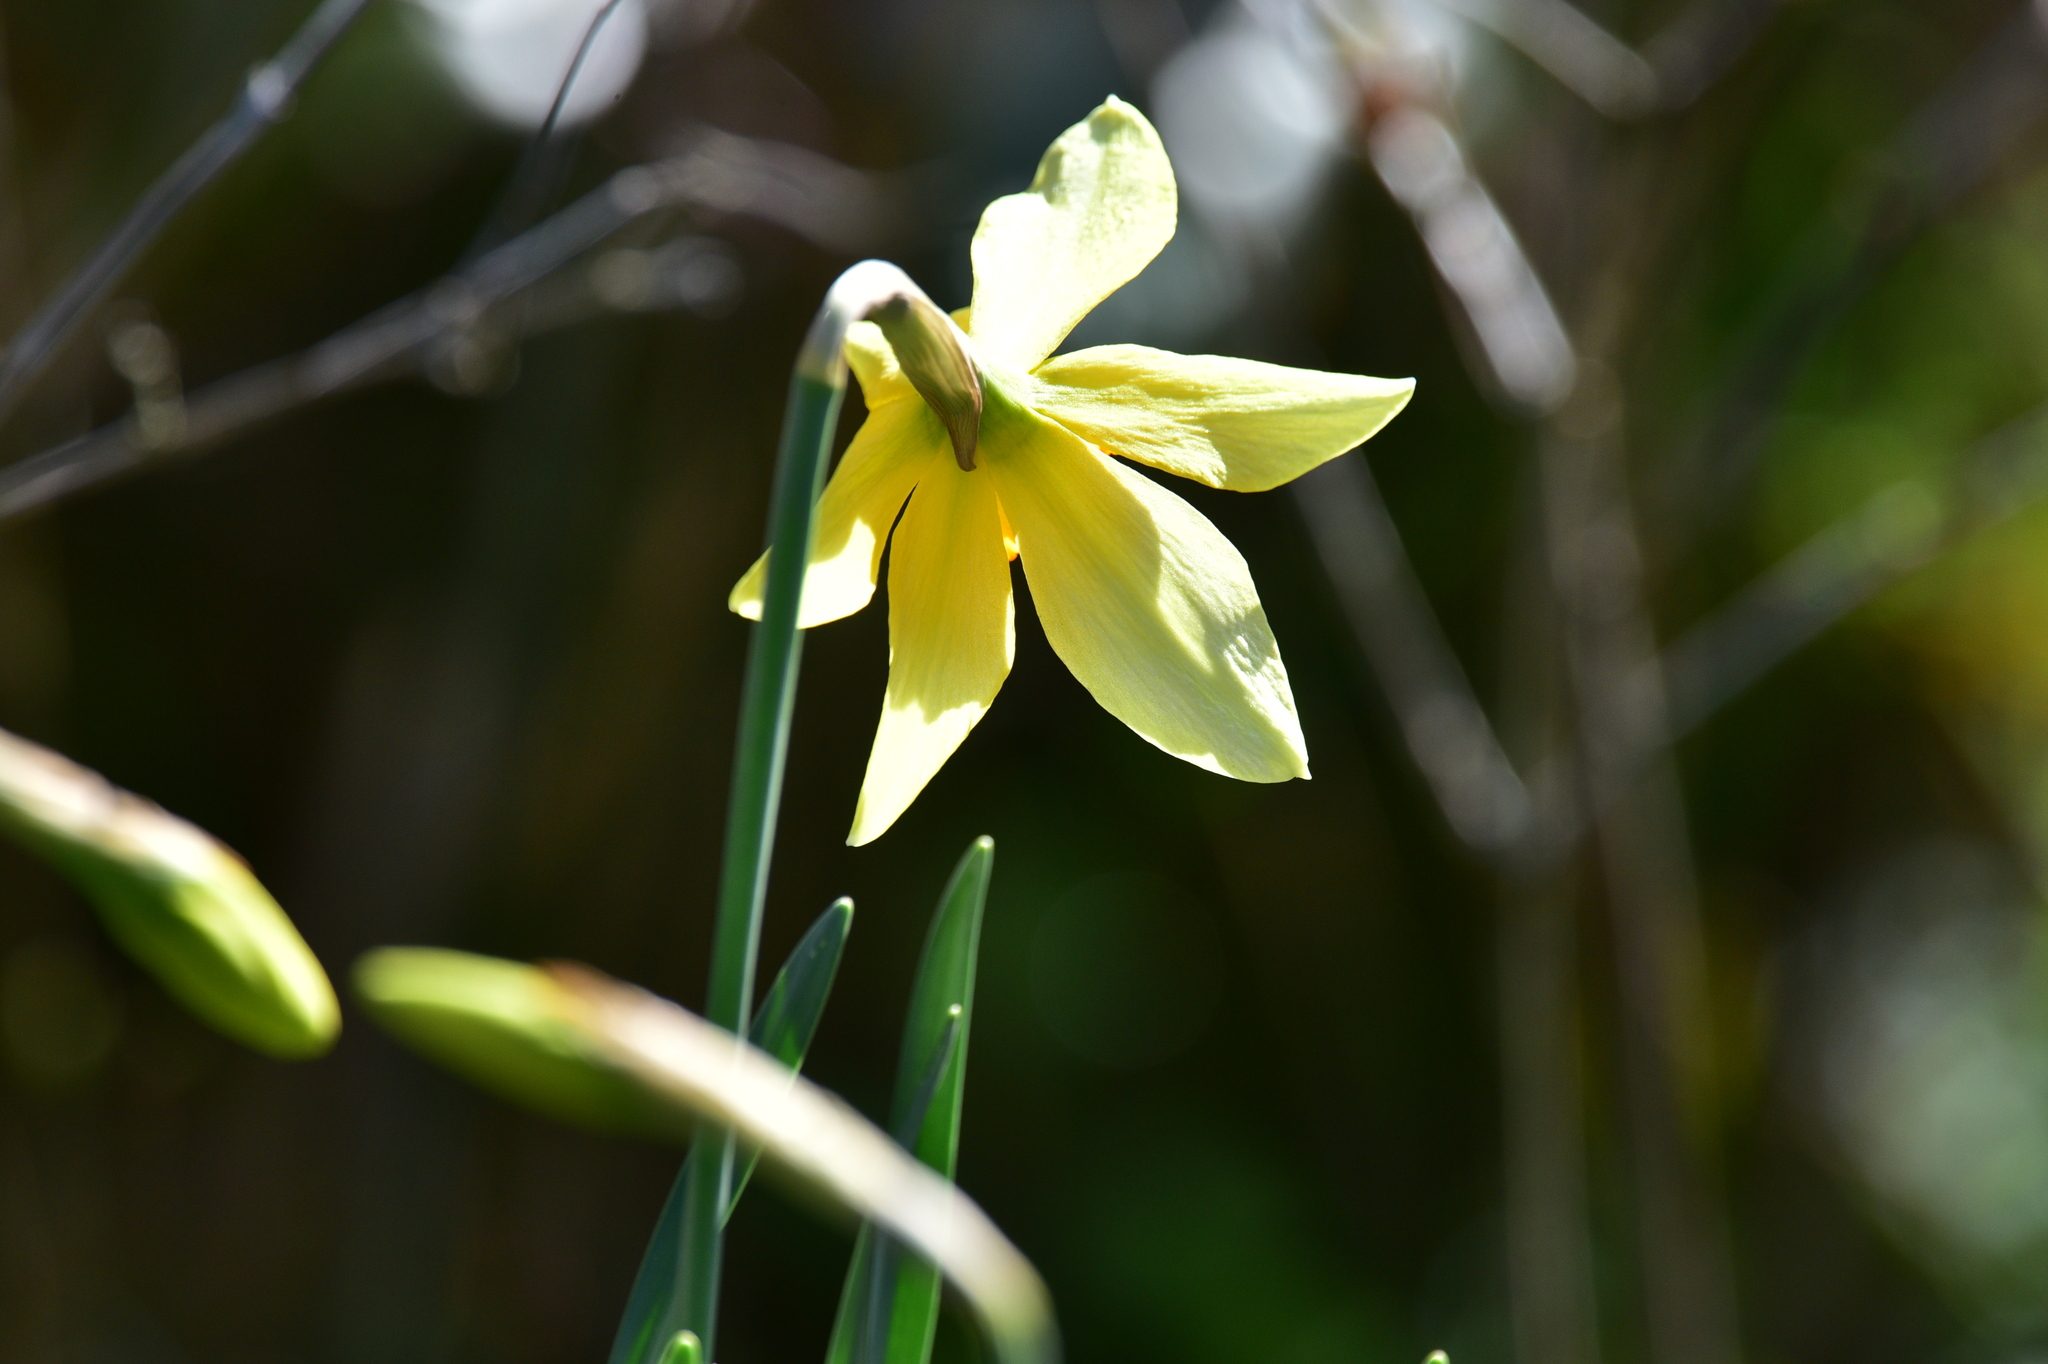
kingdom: Plantae
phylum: Tracheophyta
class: Liliopsida
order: Asparagales
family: Amaryllidaceae
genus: Narcissus
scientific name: Narcissus
